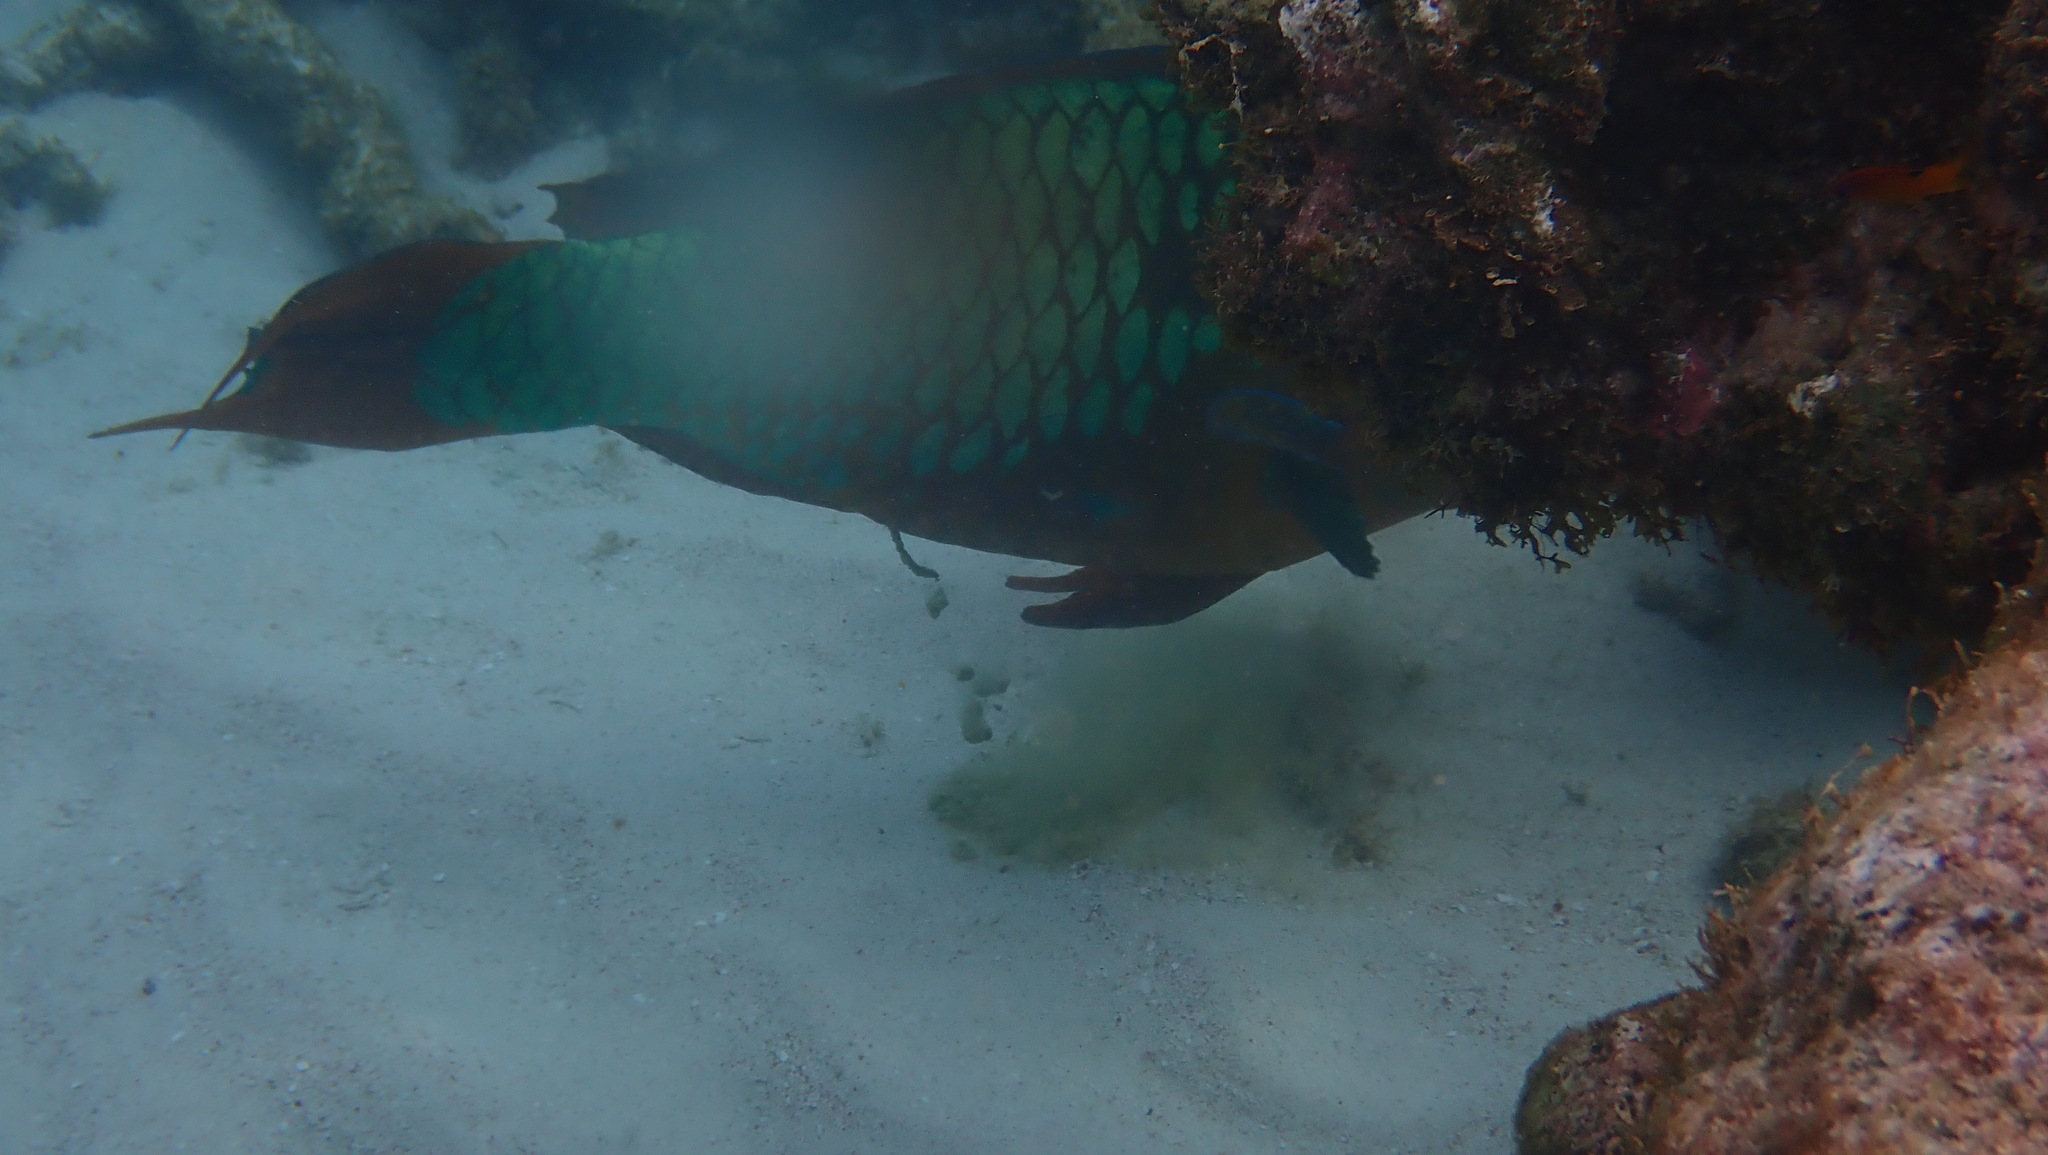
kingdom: Animalia
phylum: Chordata
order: Perciformes
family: Scaridae
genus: Scarus
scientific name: Scarus guacamaia
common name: Rainbow parrotfish
